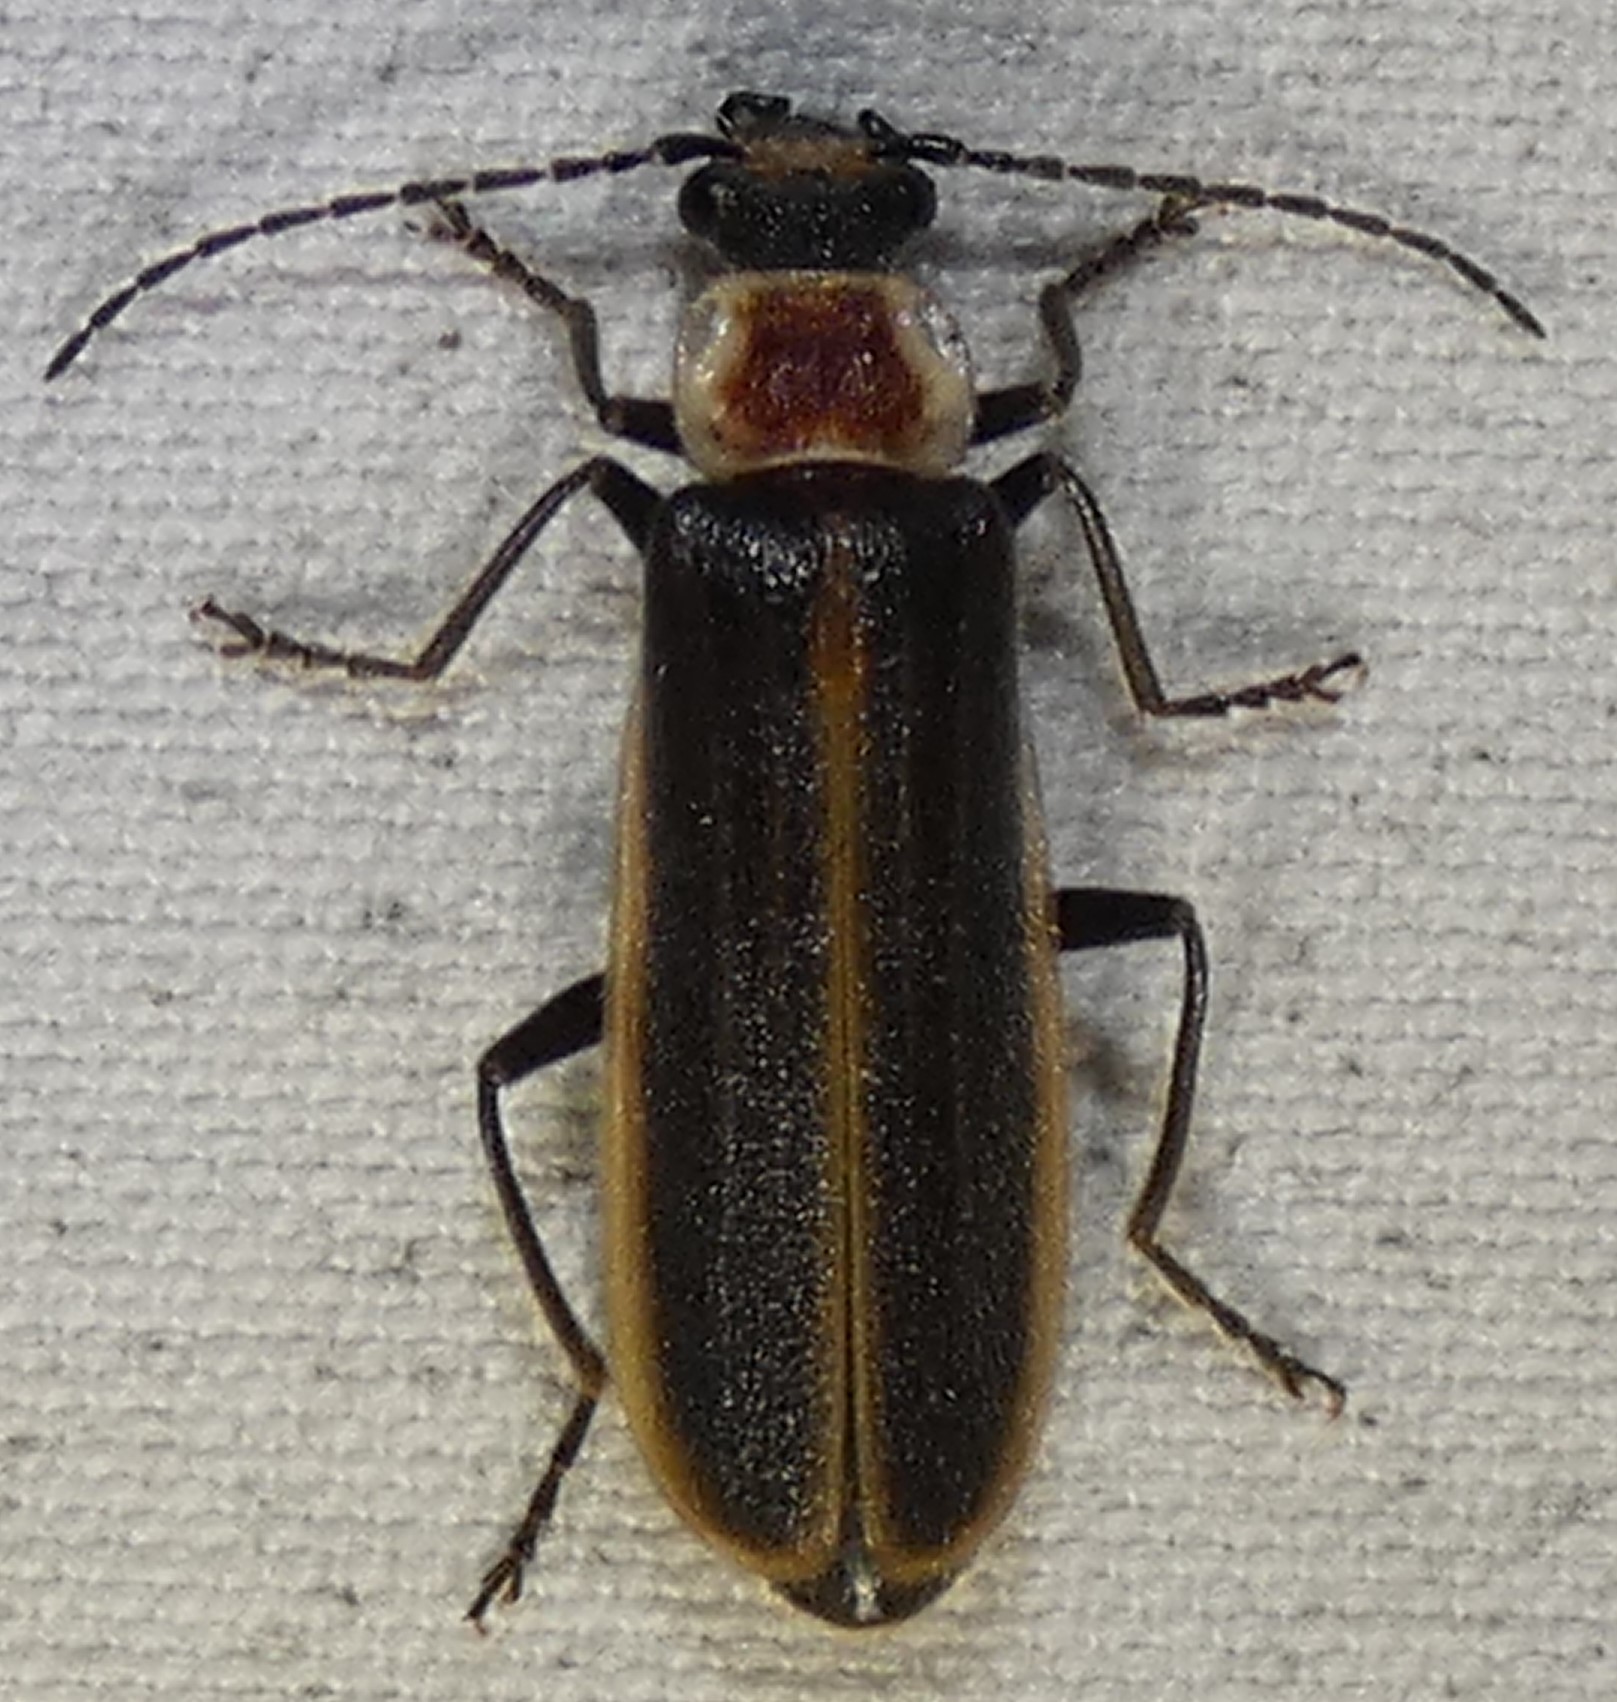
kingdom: Animalia
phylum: Arthropoda
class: Insecta
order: Coleoptera
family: Cantharidae
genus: Podabrus
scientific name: Podabrus fissus
